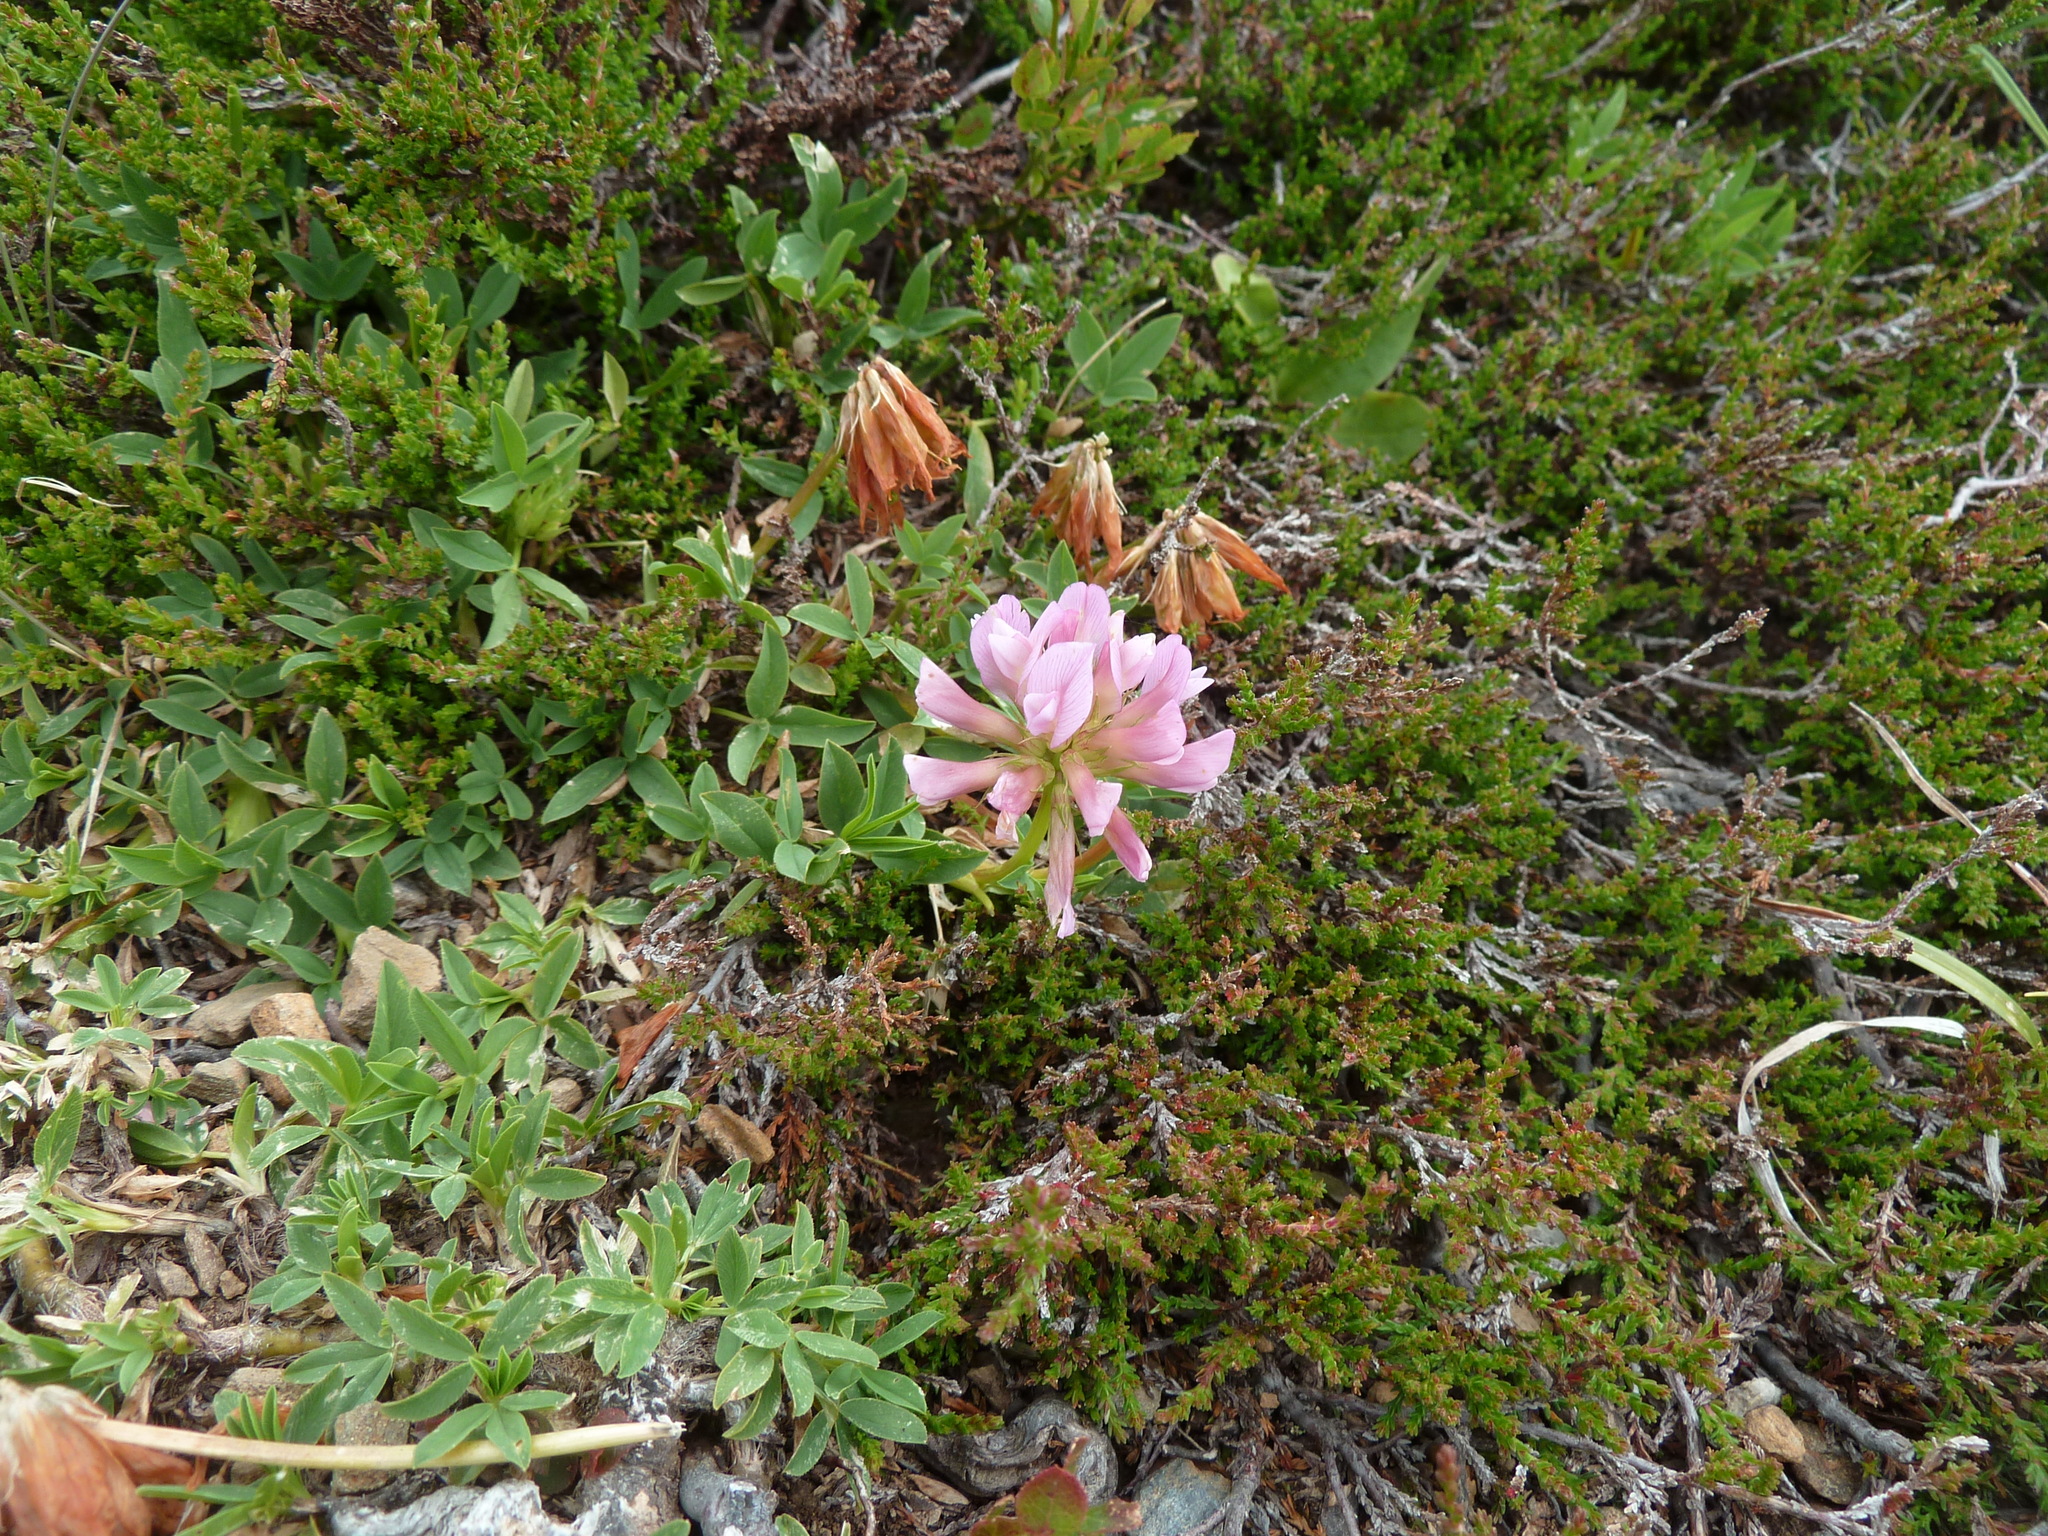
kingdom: Plantae
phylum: Tracheophyta
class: Magnoliopsida
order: Fabales
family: Fabaceae
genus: Trifolium
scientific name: Trifolium alpinum
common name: Alpine clover
